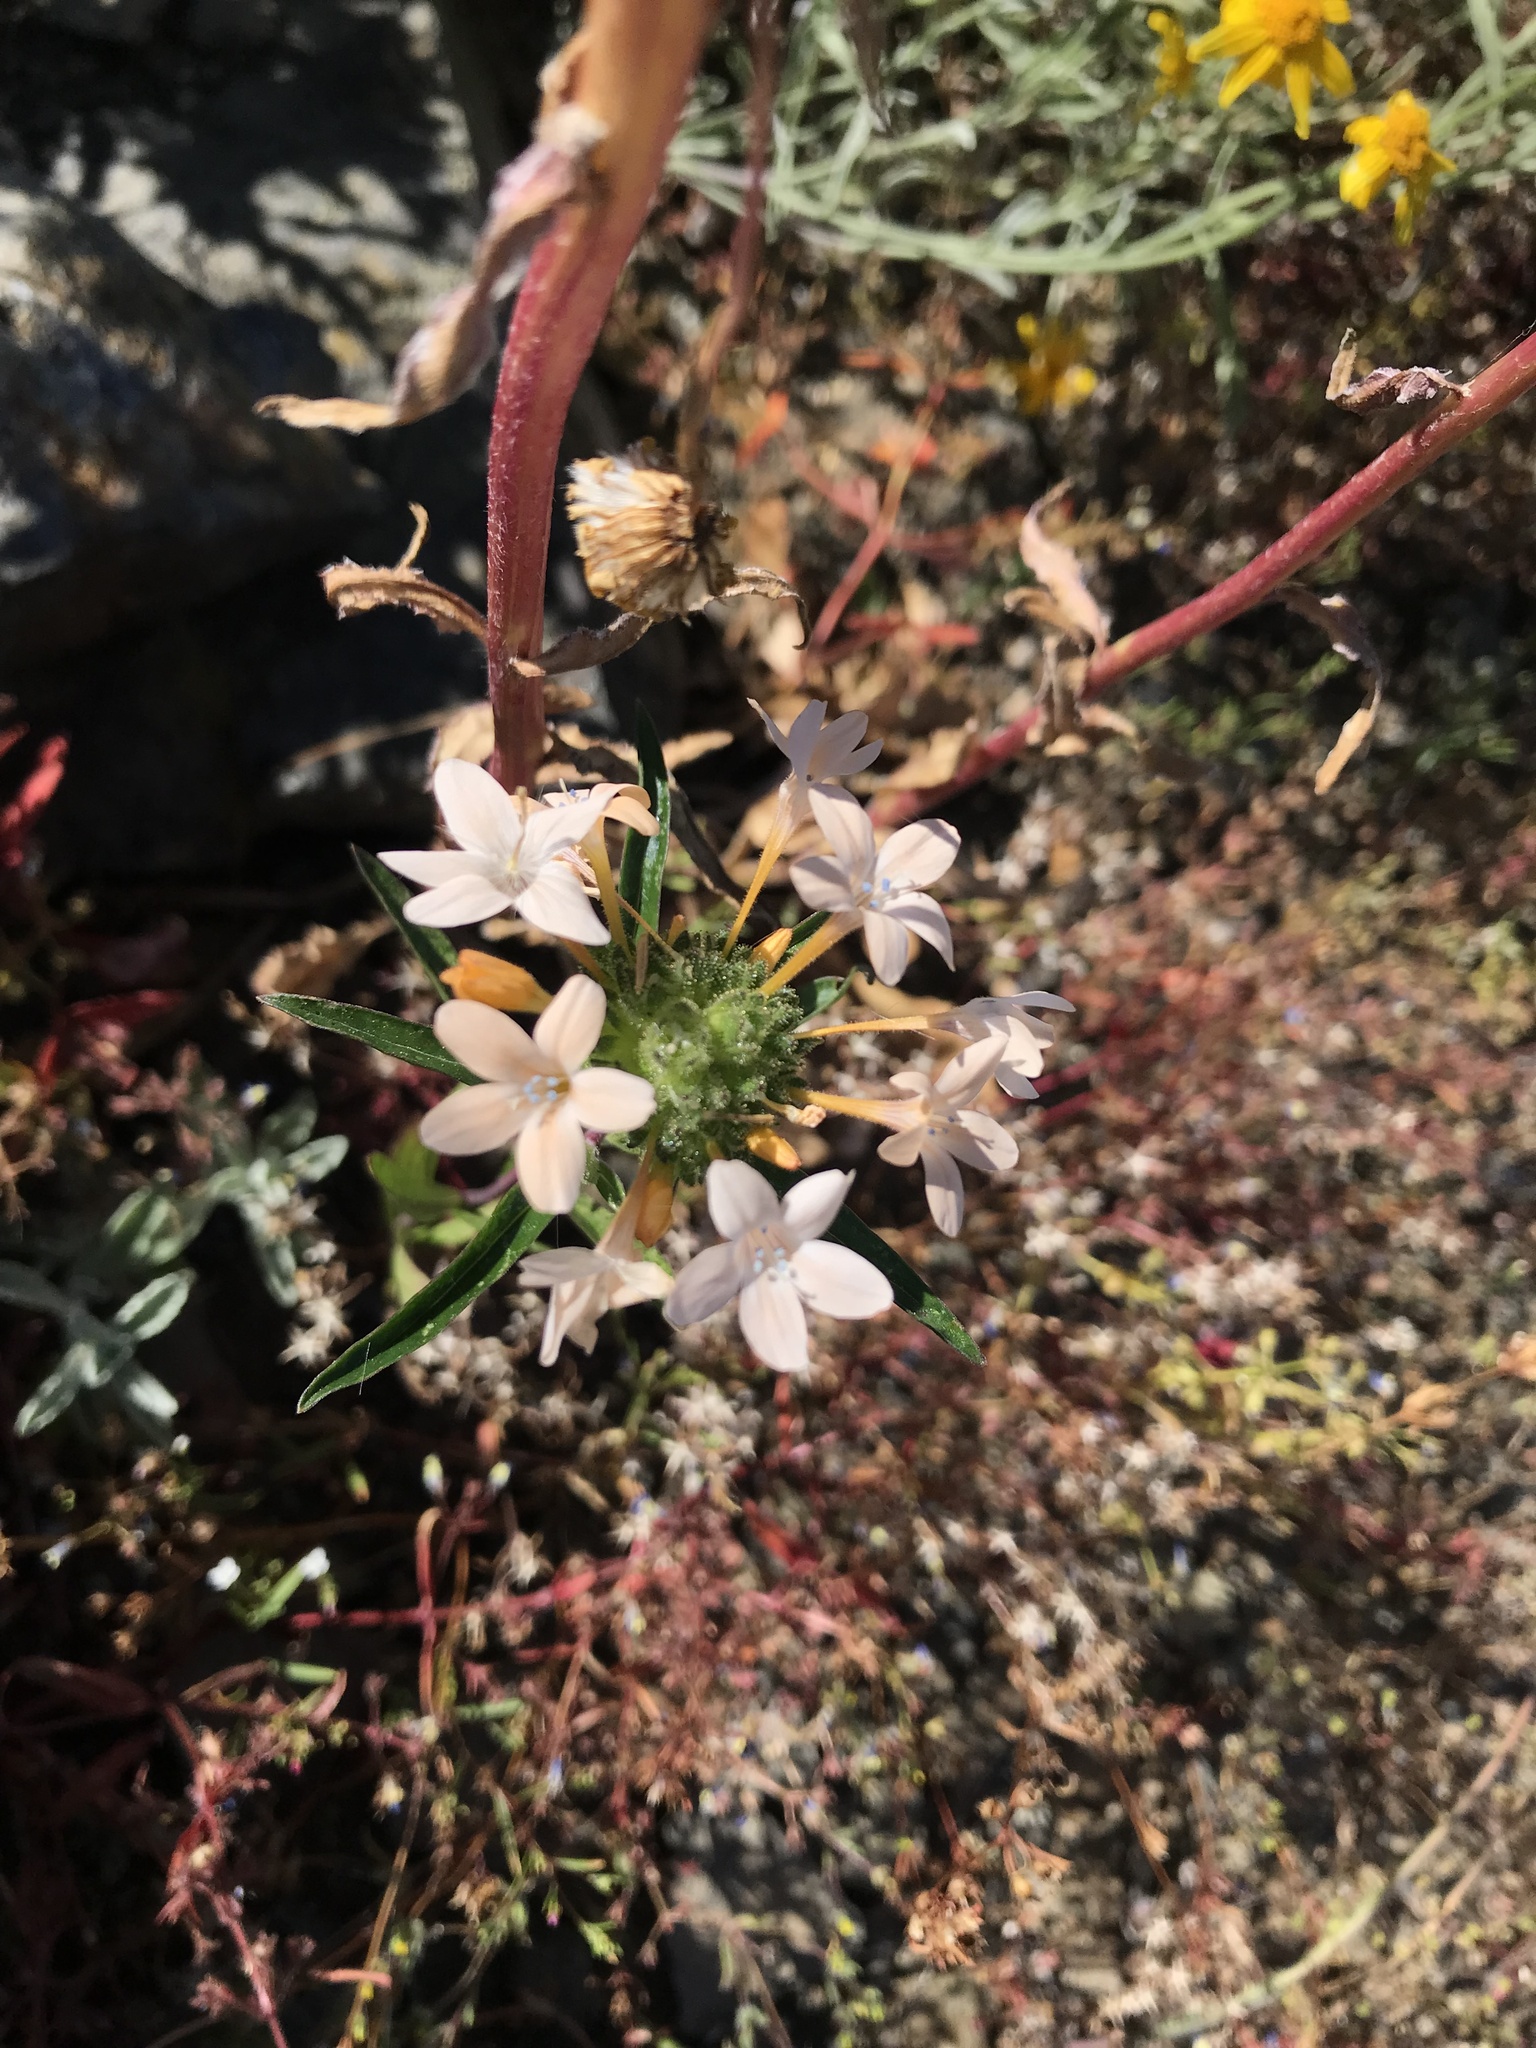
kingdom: Plantae
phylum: Tracheophyta
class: Magnoliopsida
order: Ericales
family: Polemoniaceae
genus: Collomia
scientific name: Collomia grandiflora
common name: California strawflower
